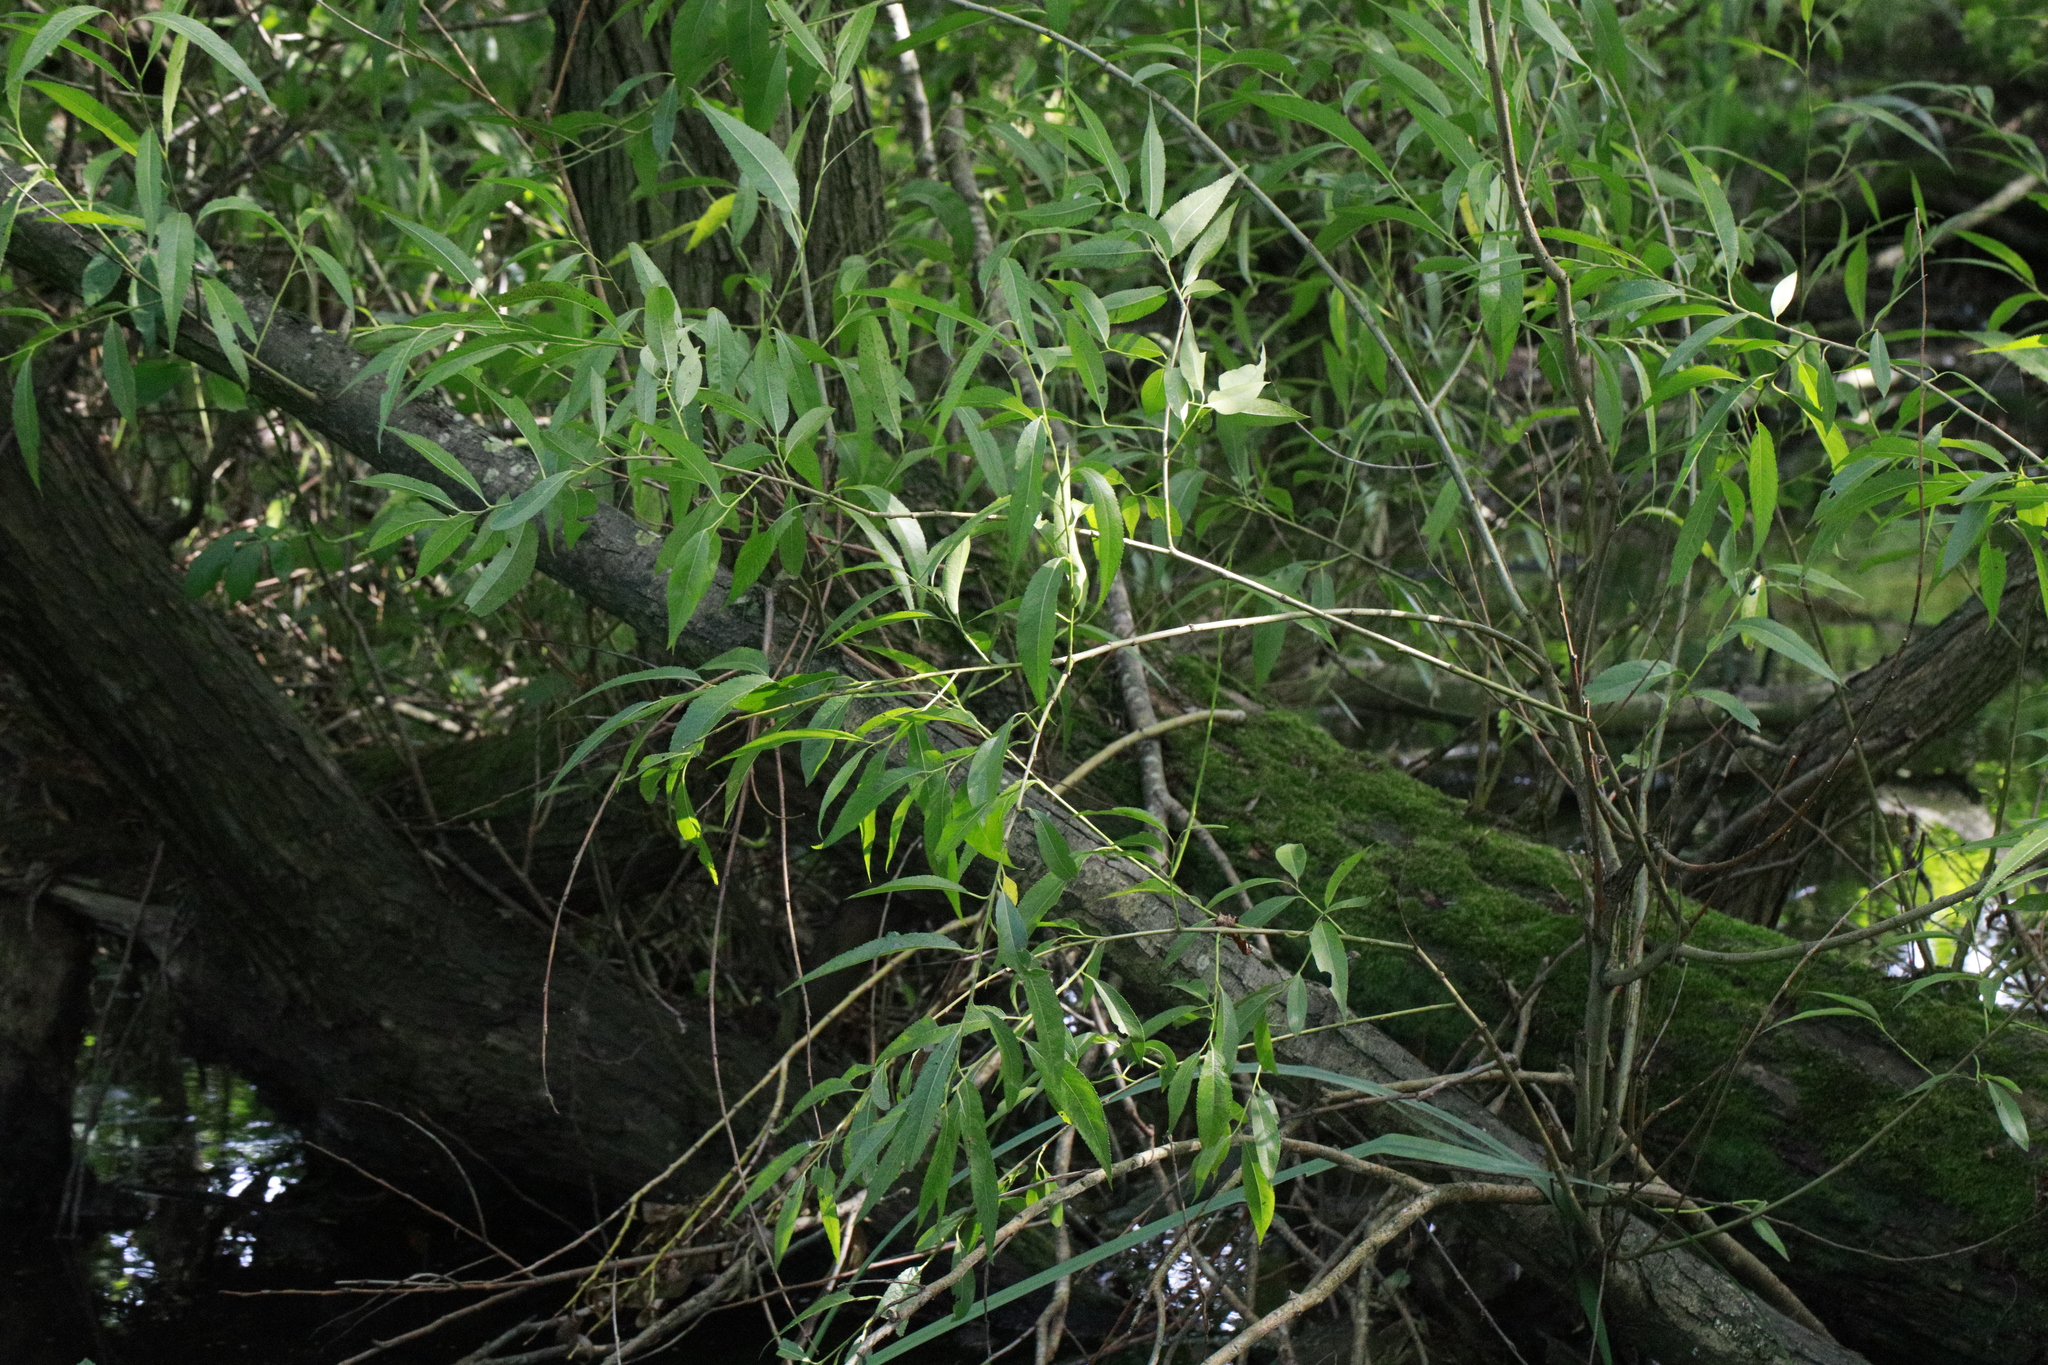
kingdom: Plantae
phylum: Tracheophyta
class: Magnoliopsida
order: Malpighiales
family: Salicaceae
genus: Salix
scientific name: Salix fragilis
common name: Crack willow
